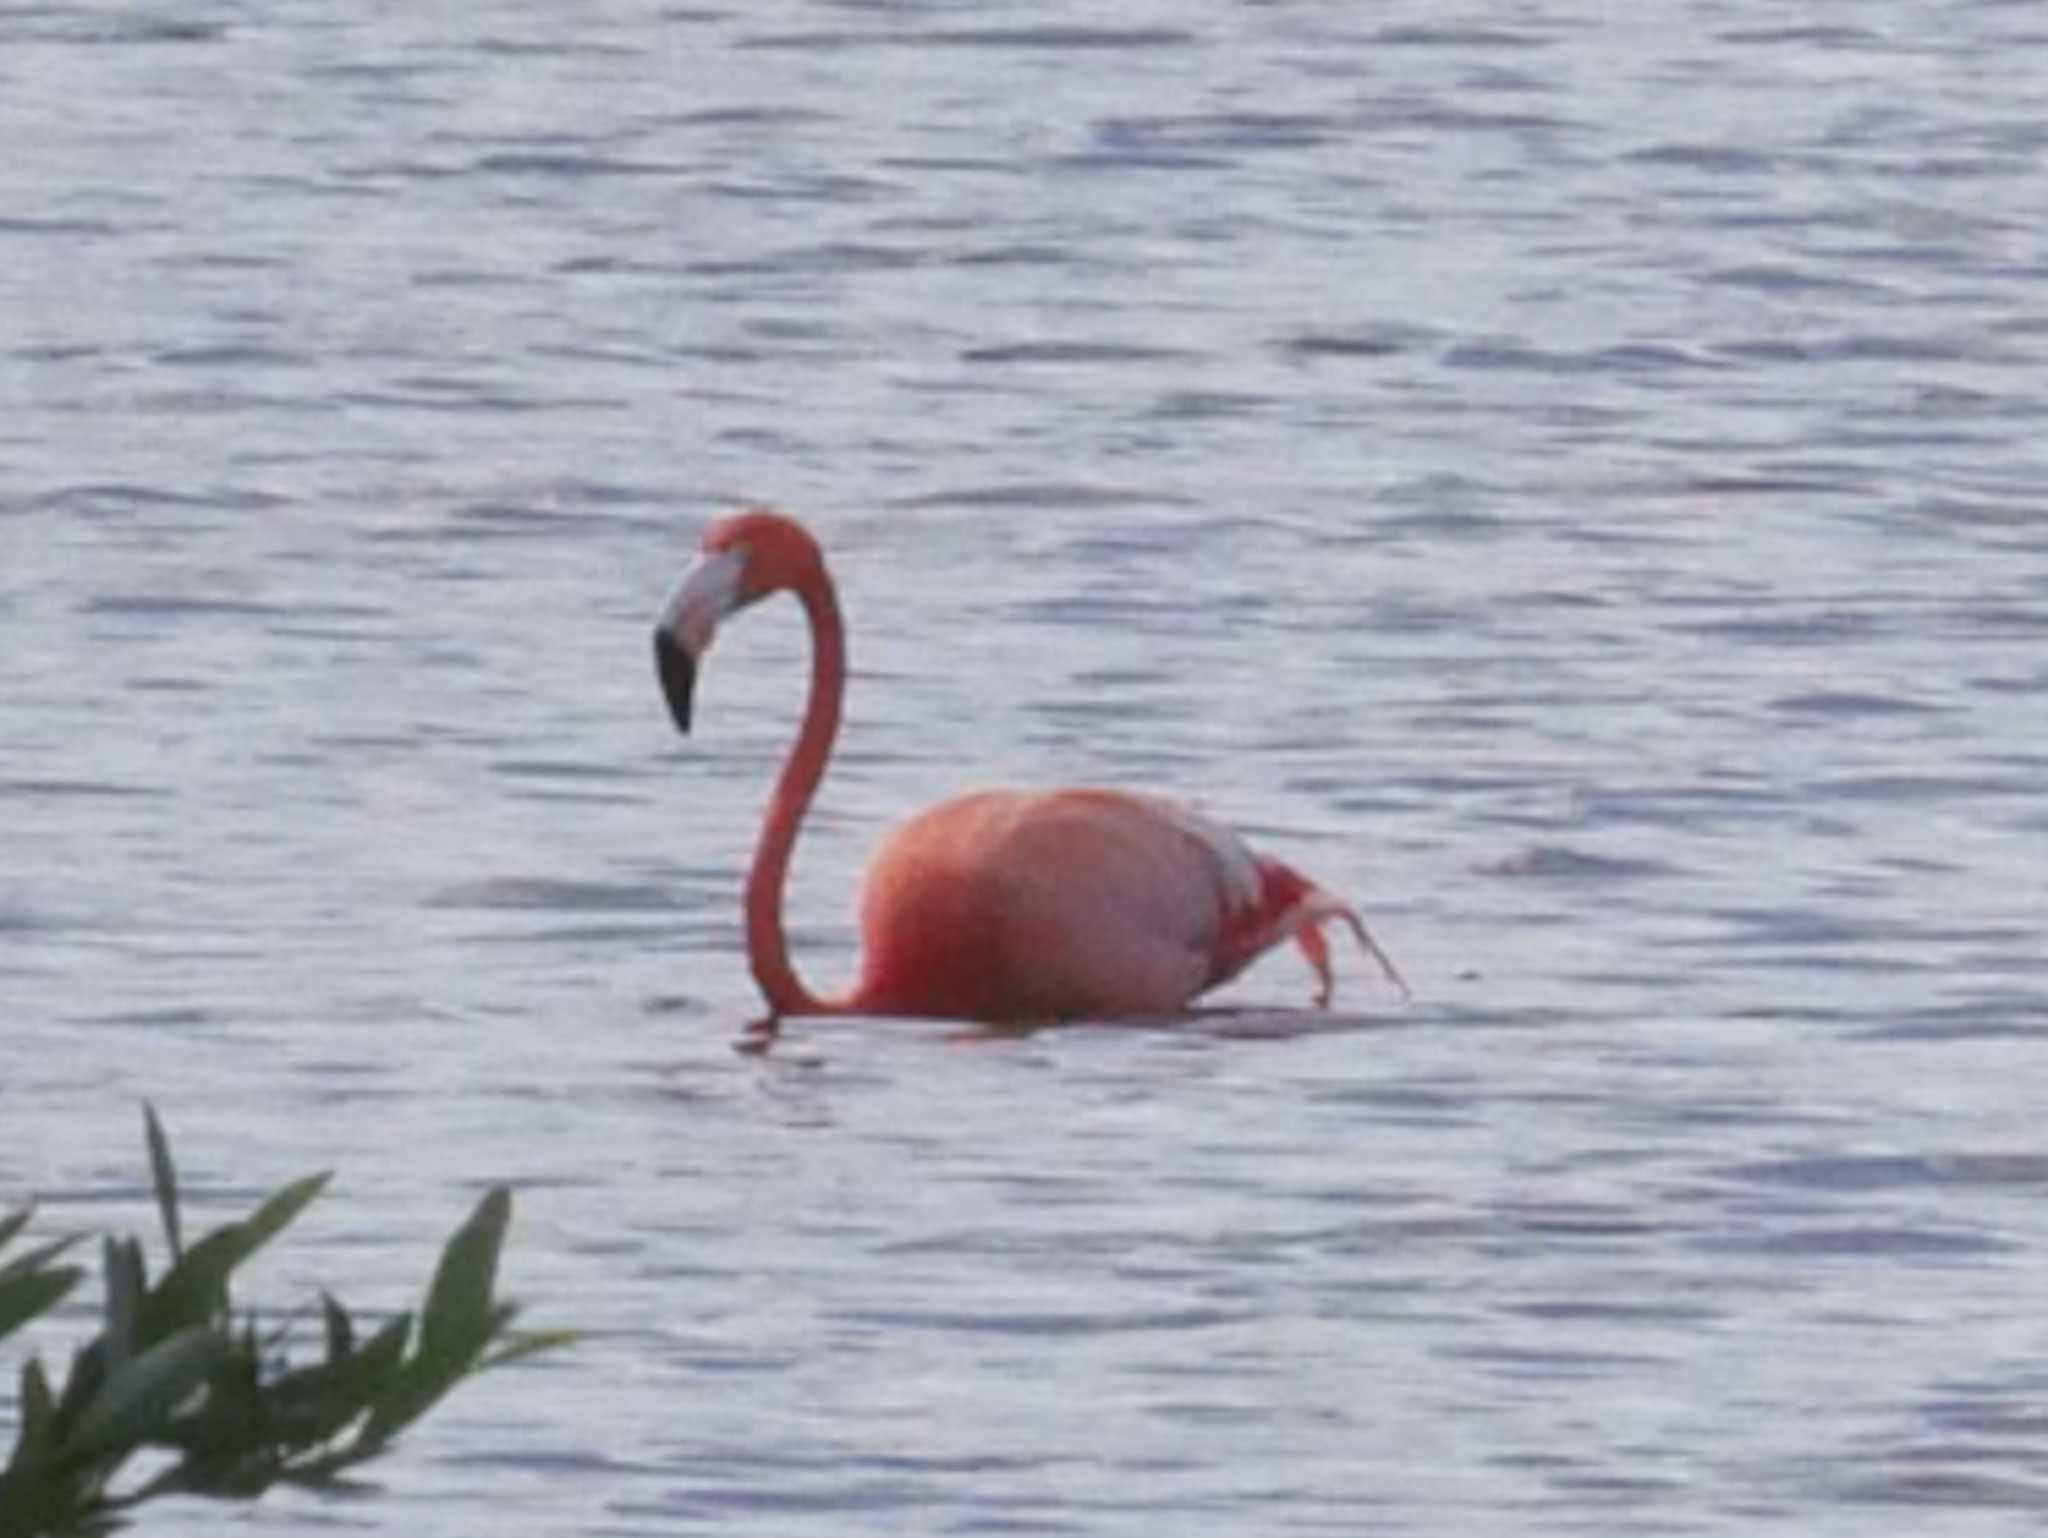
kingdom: Animalia
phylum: Chordata
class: Aves
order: Phoenicopteriformes
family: Phoenicopteridae
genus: Phoenicopterus
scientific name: Phoenicopterus ruber
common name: American flamingo
